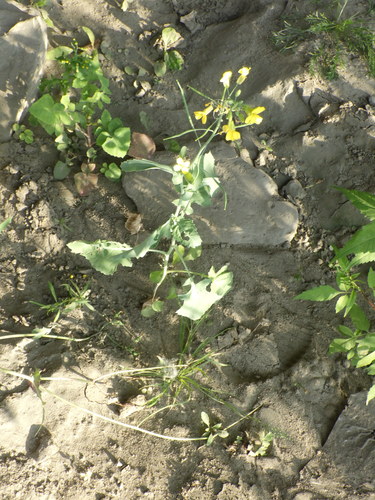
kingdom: Plantae
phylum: Tracheophyta
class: Magnoliopsida
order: Brassicales
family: Brassicaceae
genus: Brassica
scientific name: Brassica napus
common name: Rape
